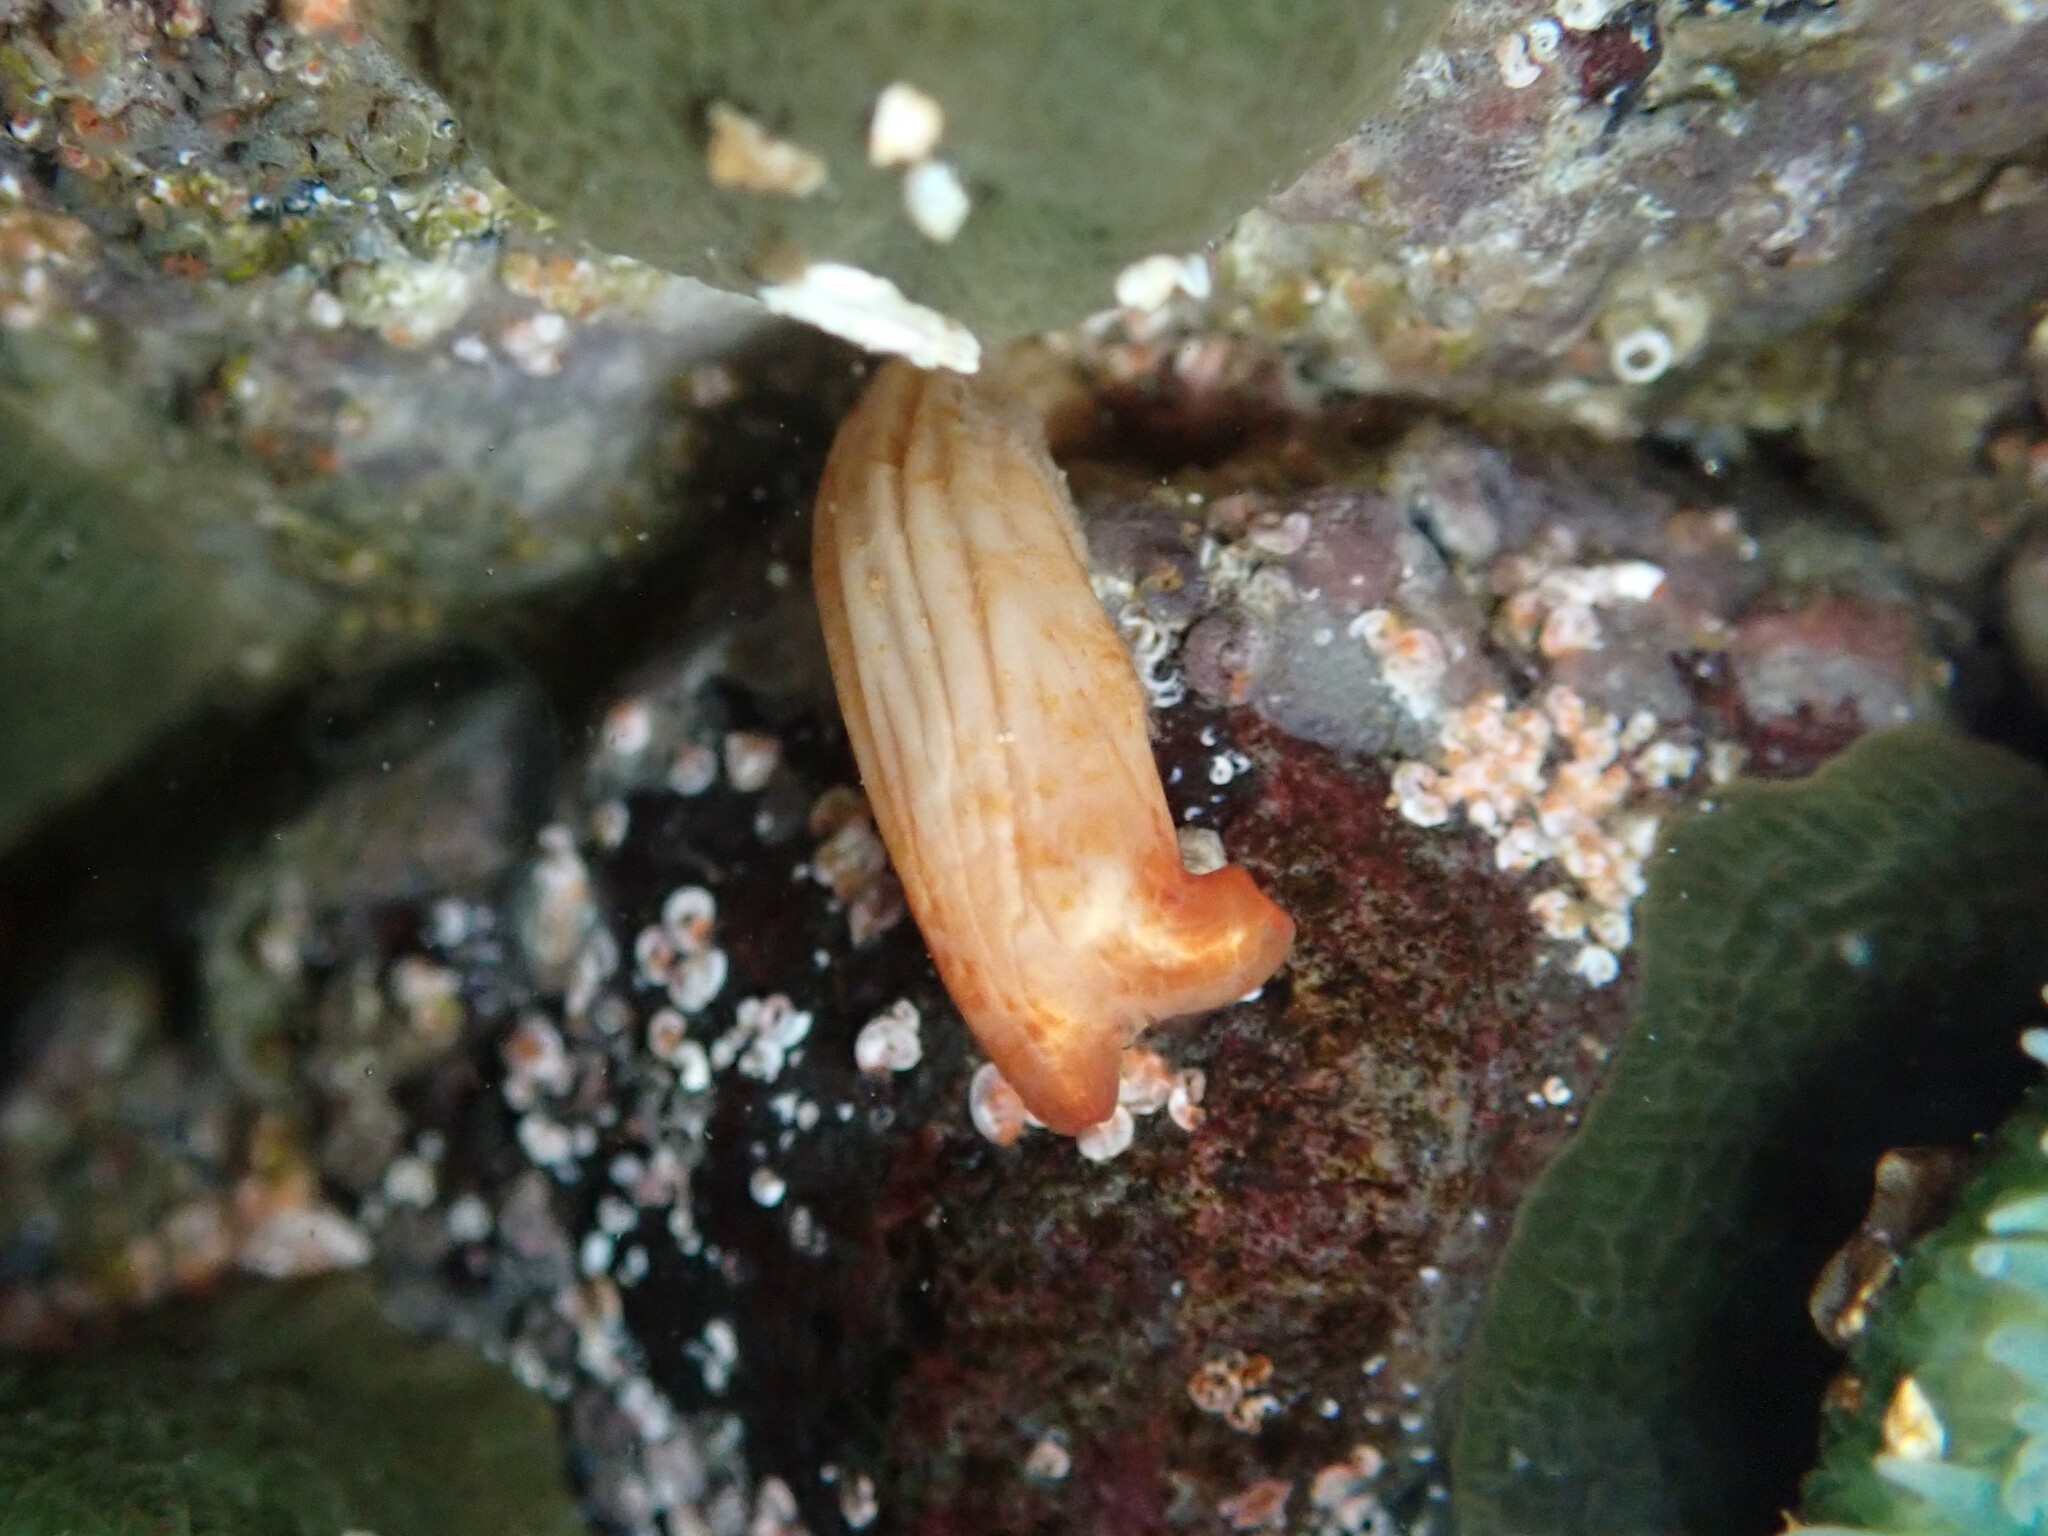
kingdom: Animalia
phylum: Chordata
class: Ascidiacea
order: Stolidobranchia
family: Styelidae
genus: Styela
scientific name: Styela montereyensis
